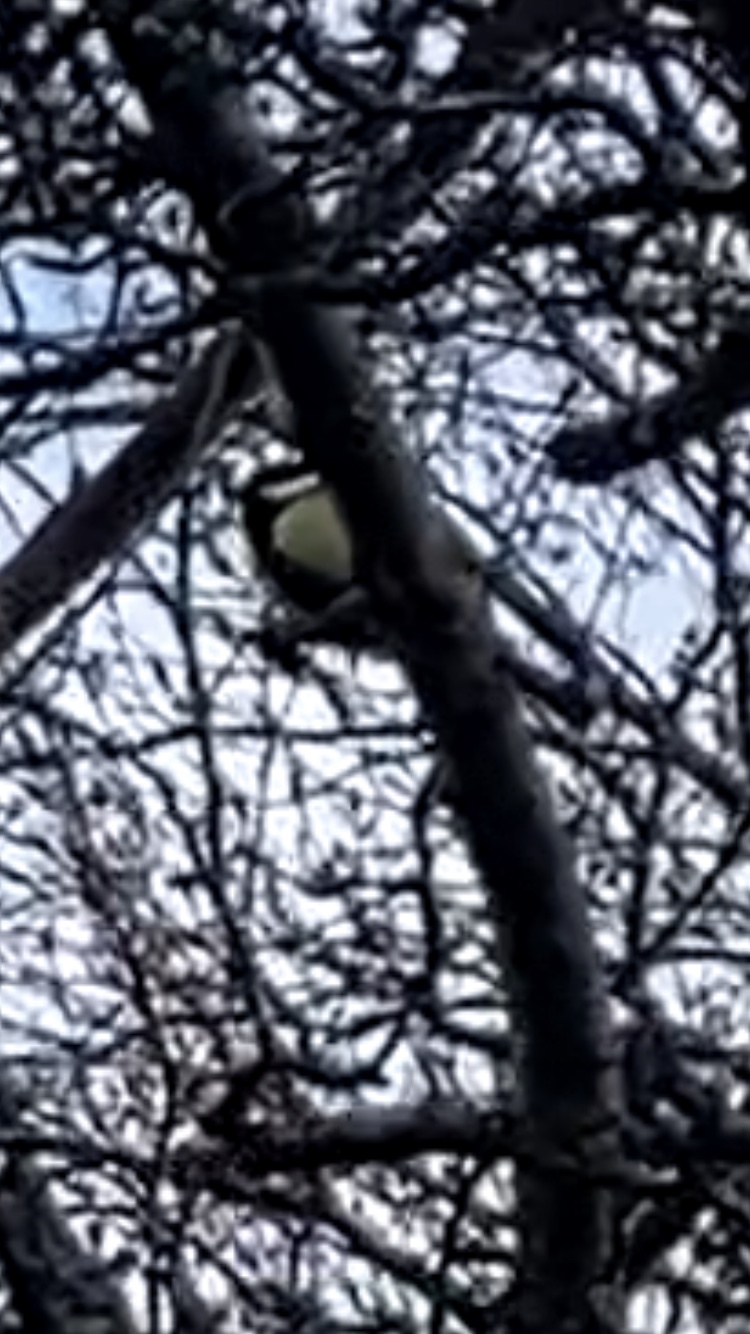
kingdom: Animalia
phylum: Chordata
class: Aves
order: Passeriformes
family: Paridae
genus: Parus
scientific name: Parus major
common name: Great tit
